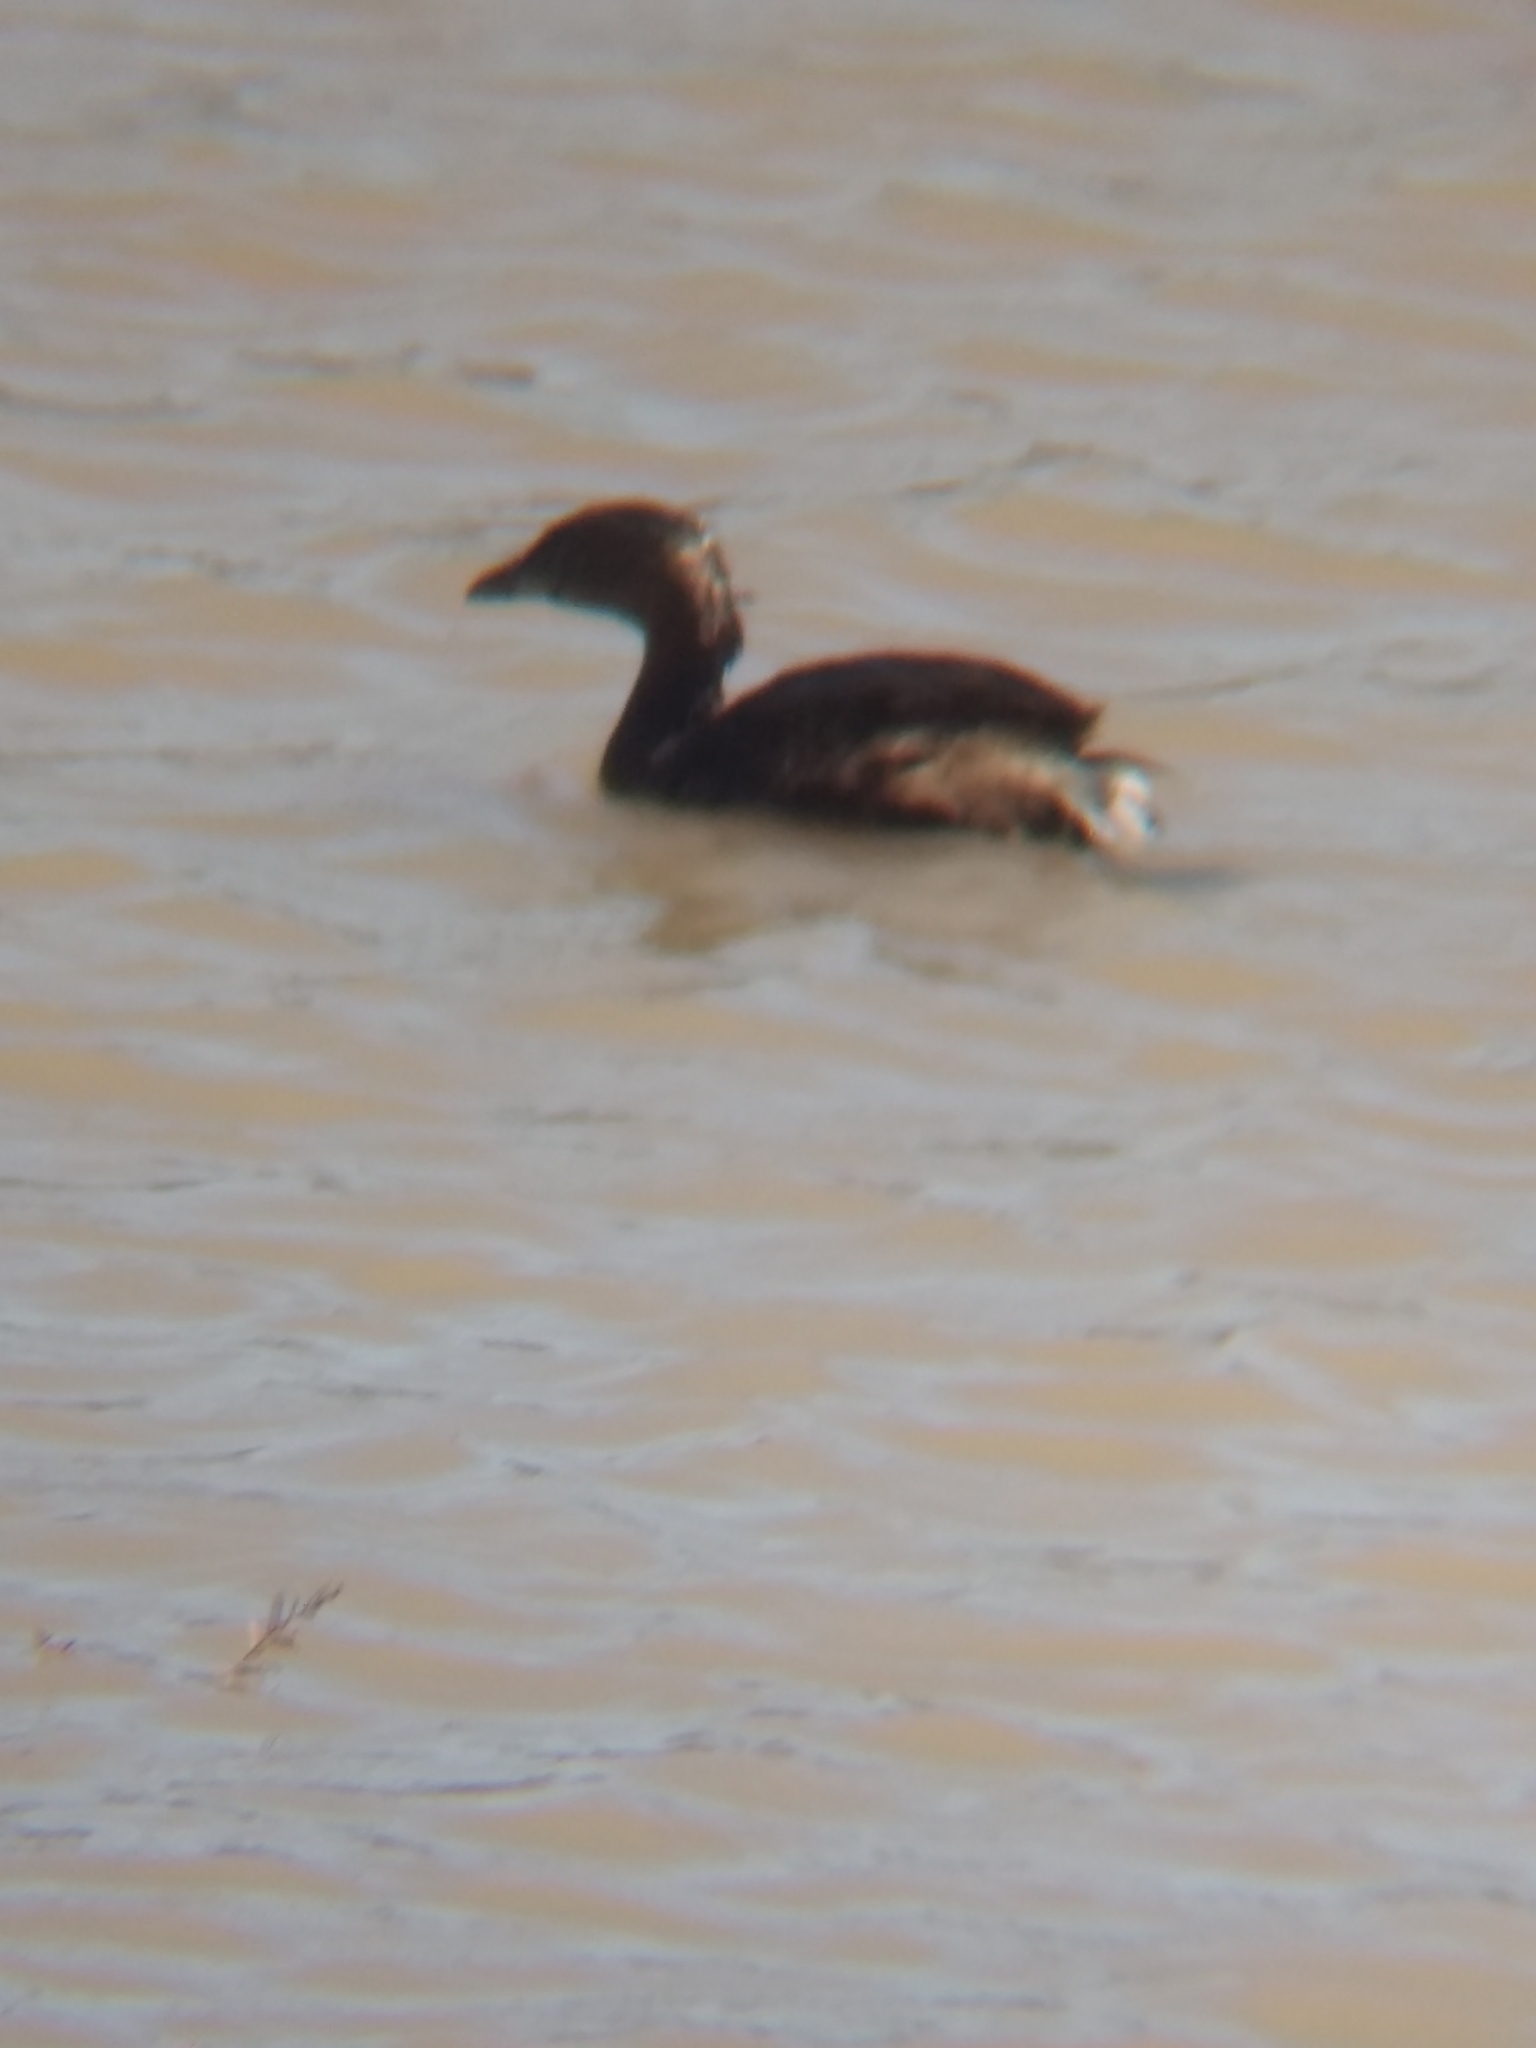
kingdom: Animalia
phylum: Chordata
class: Aves
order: Podicipediformes
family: Podicipedidae
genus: Podilymbus
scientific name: Podilymbus podiceps
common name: Pied-billed grebe
